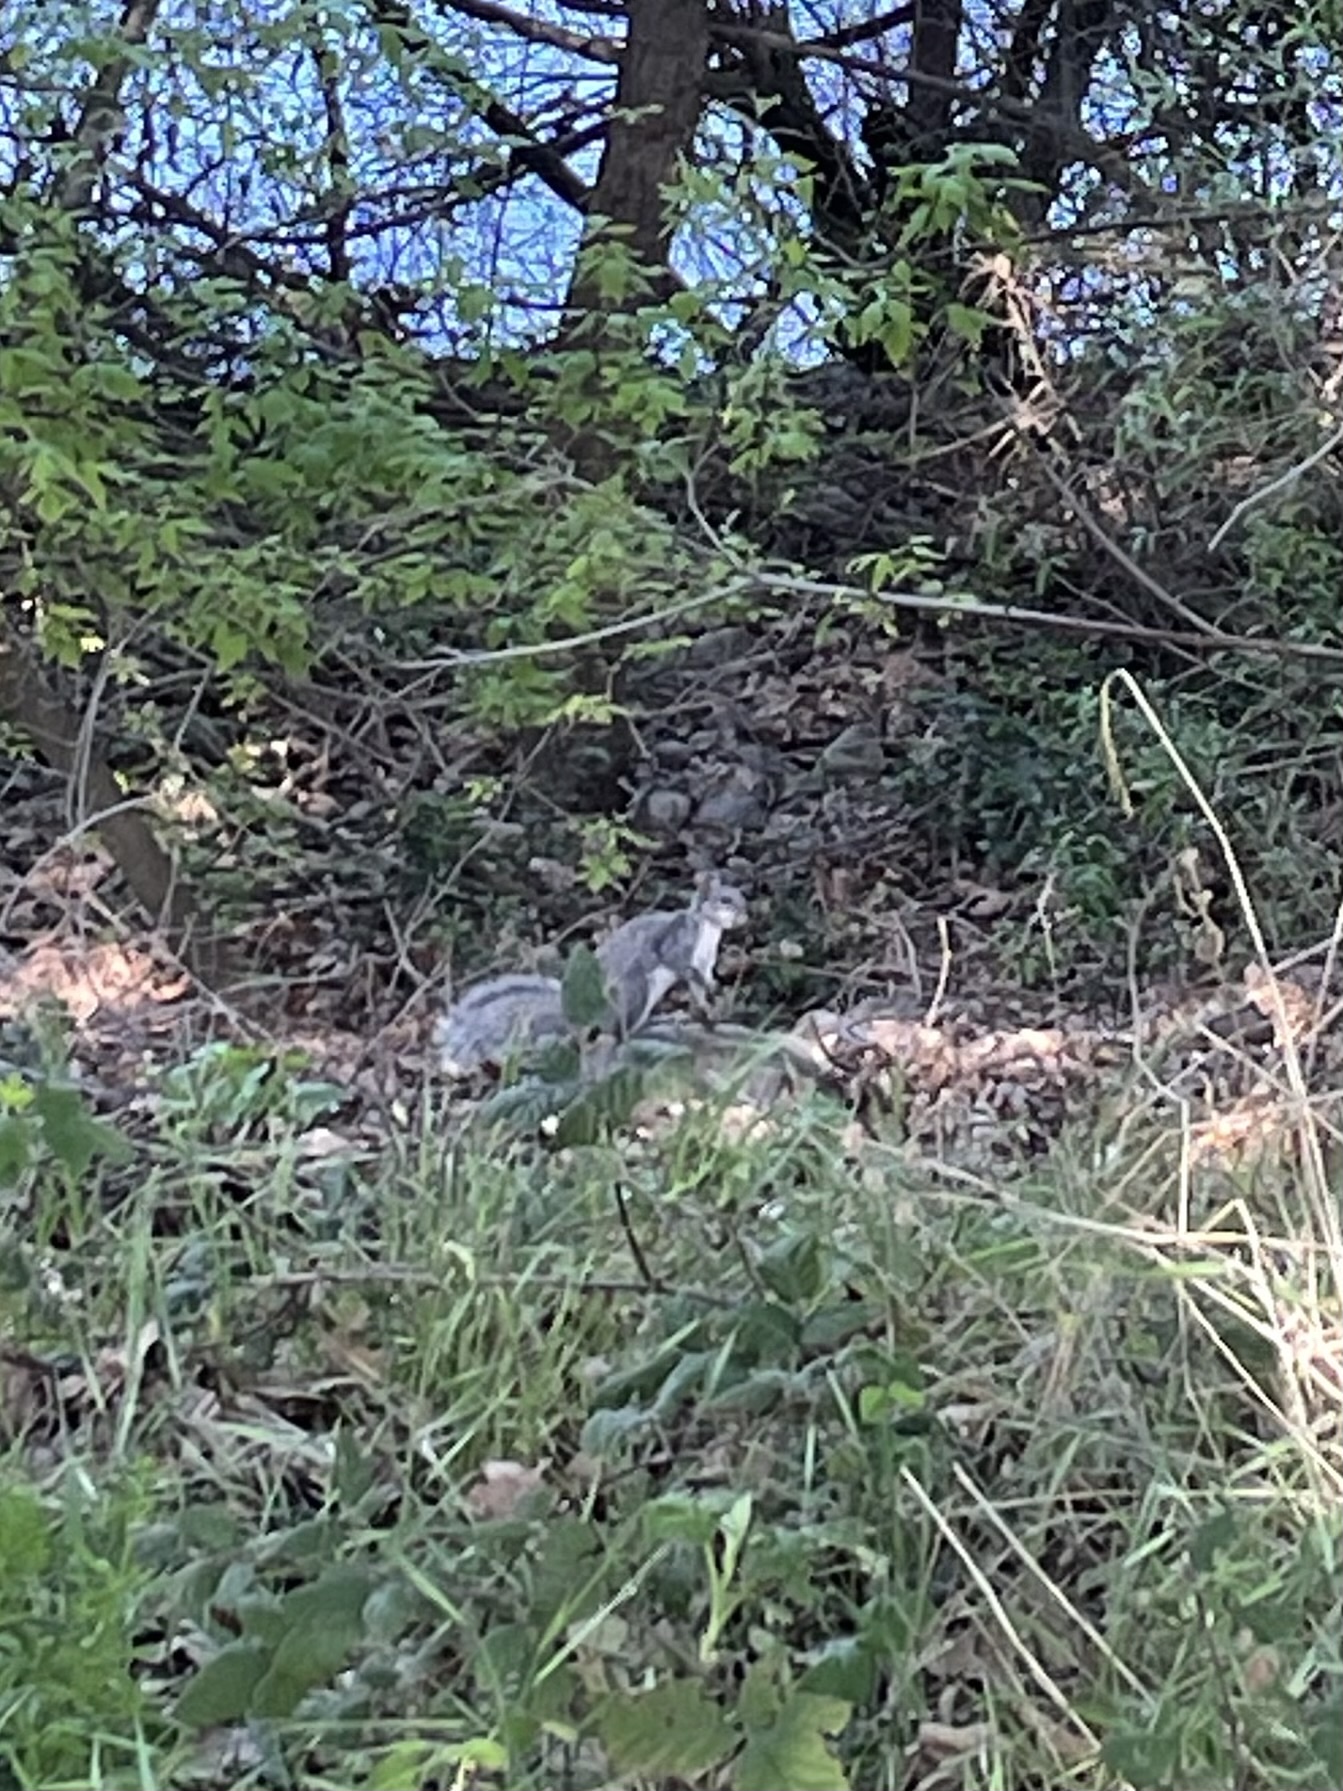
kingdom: Animalia
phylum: Chordata
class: Mammalia
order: Rodentia
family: Sciuridae
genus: Sciurus
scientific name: Sciurus griseus
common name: Western gray squirrel
